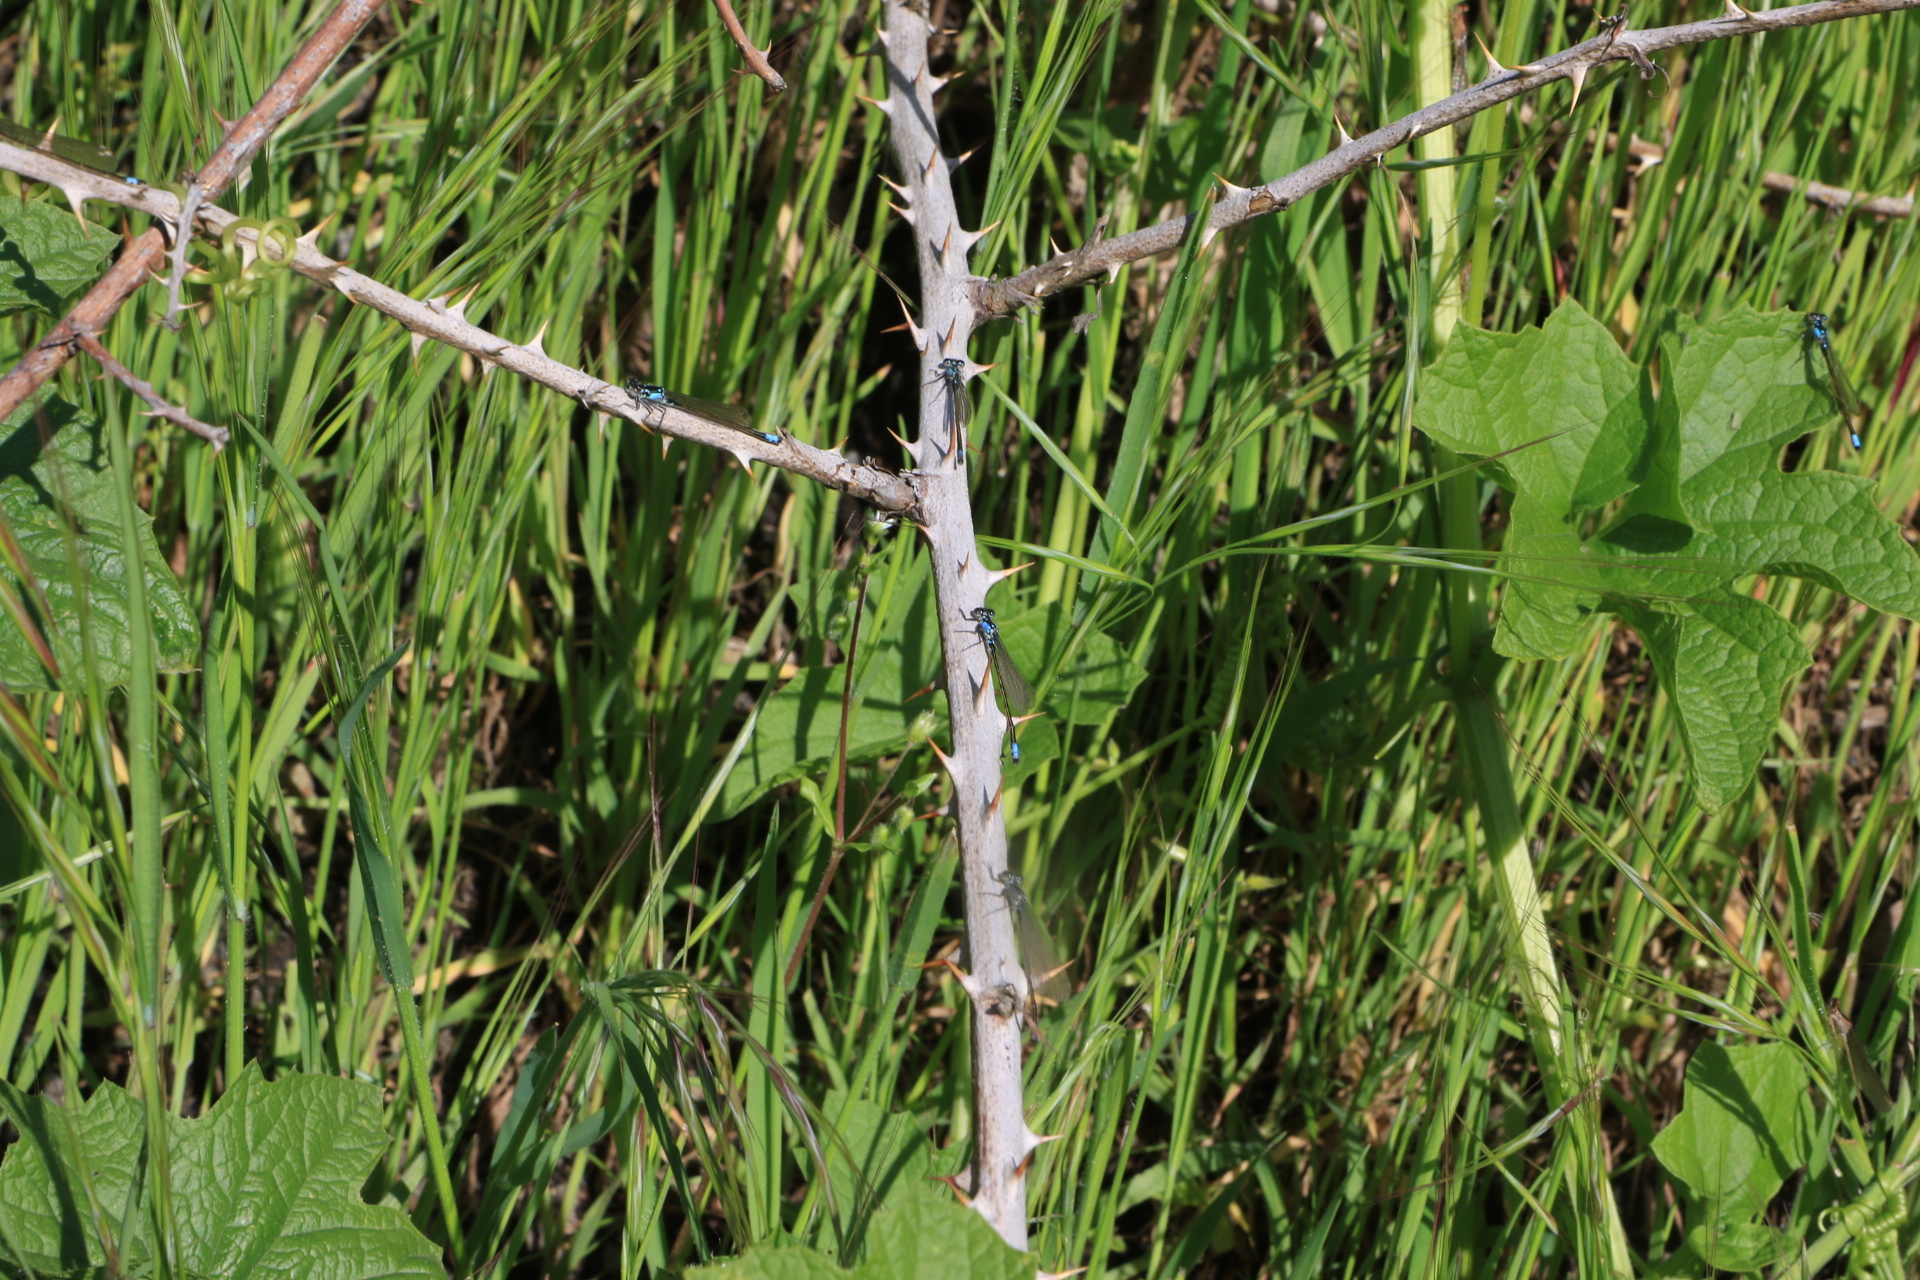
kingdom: Animalia
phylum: Arthropoda
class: Insecta
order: Odonata
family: Coenagrionidae
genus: Ischnura
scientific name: Ischnura cervula
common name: Pacific forktail
